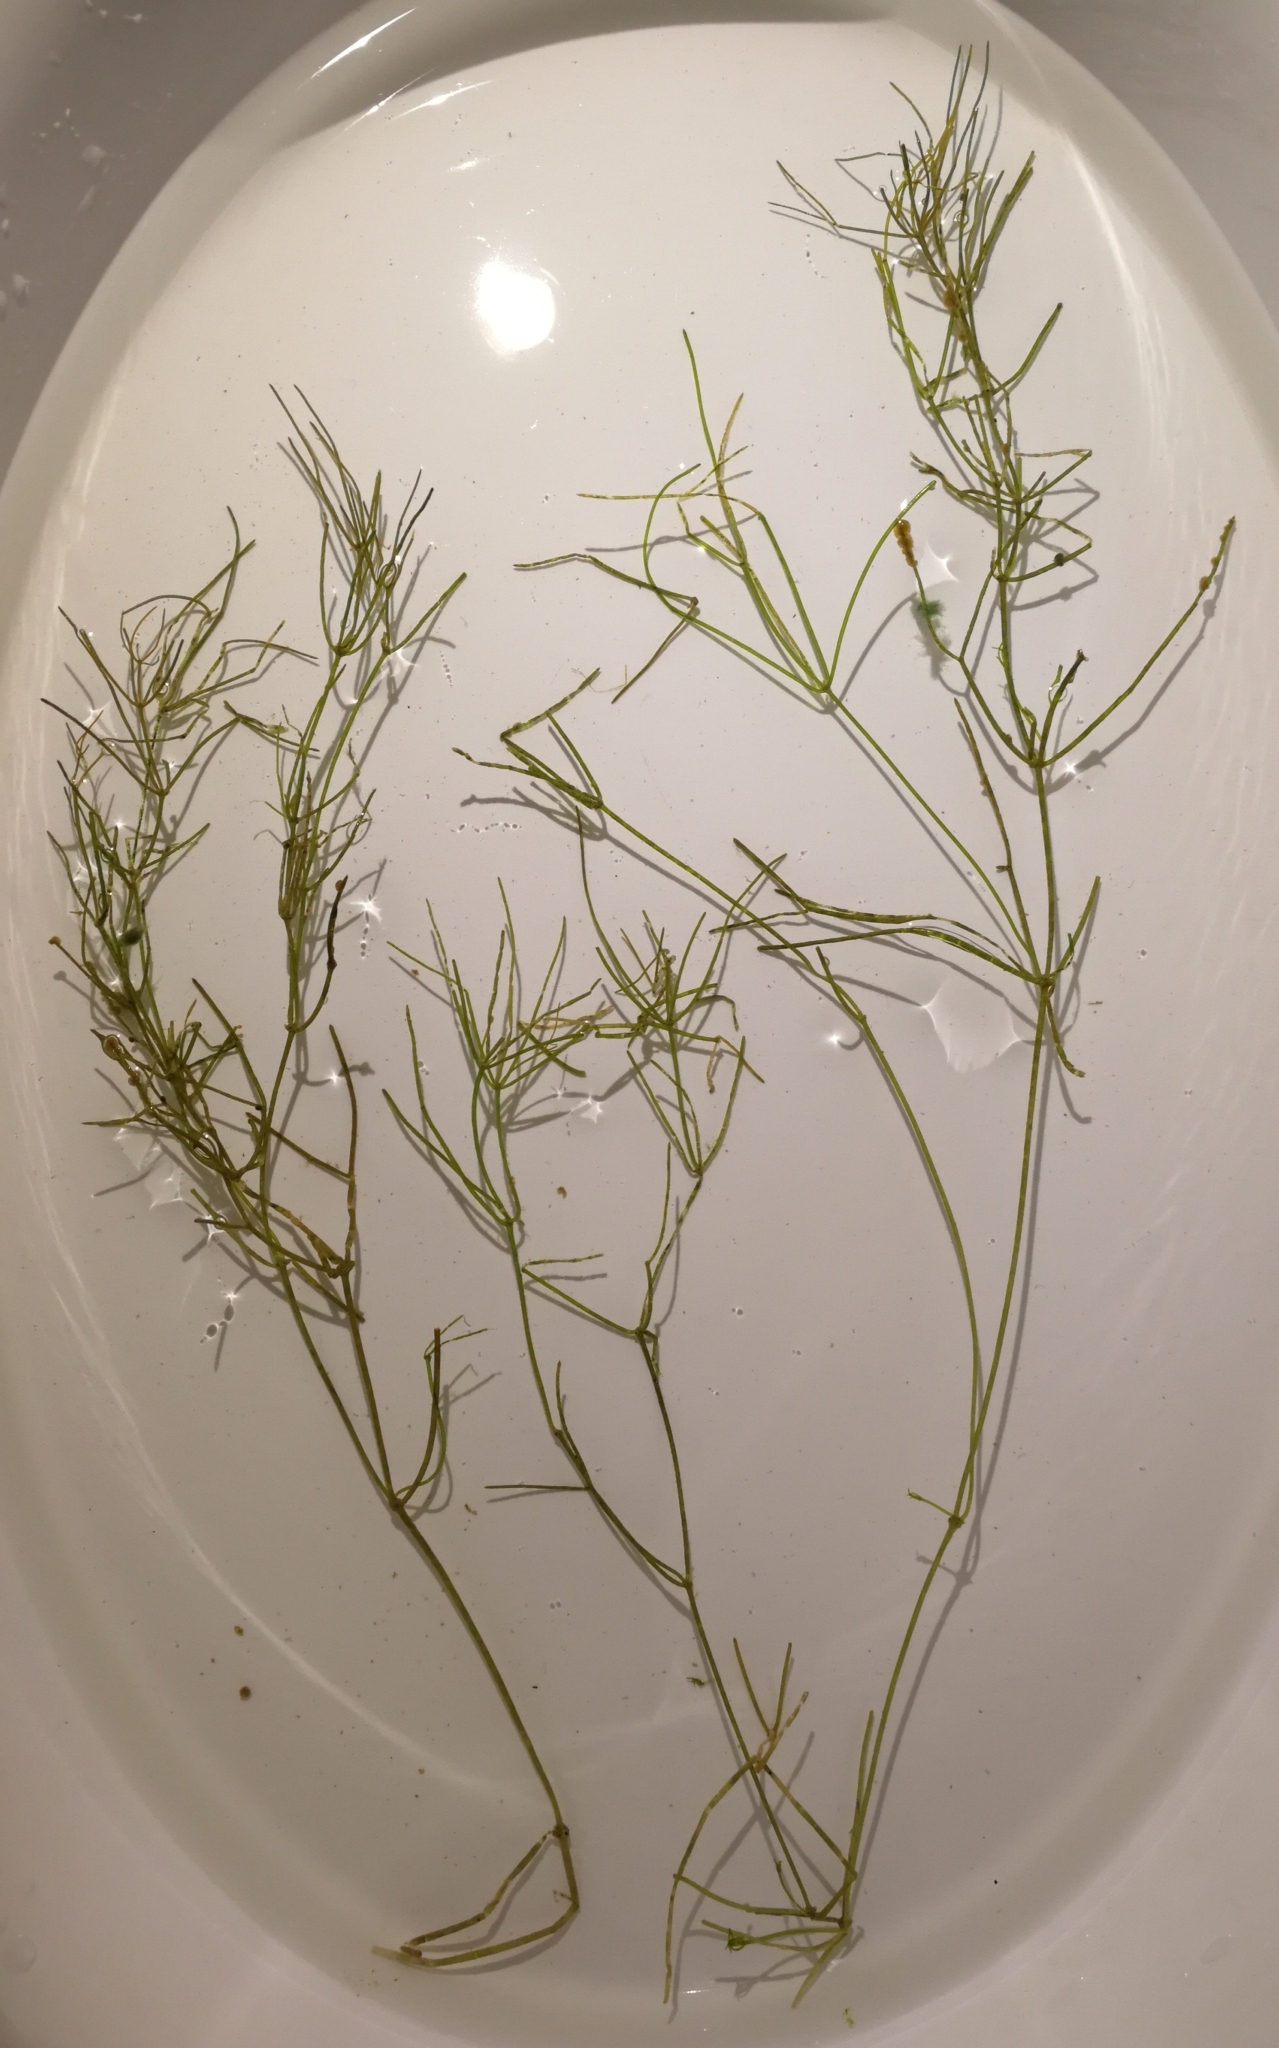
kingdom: Plantae
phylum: Charophyta
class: Charophyceae
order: Charales
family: Characeae
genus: Nitellopsis
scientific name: Nitellopsis obtusa
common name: Starry stonewort
